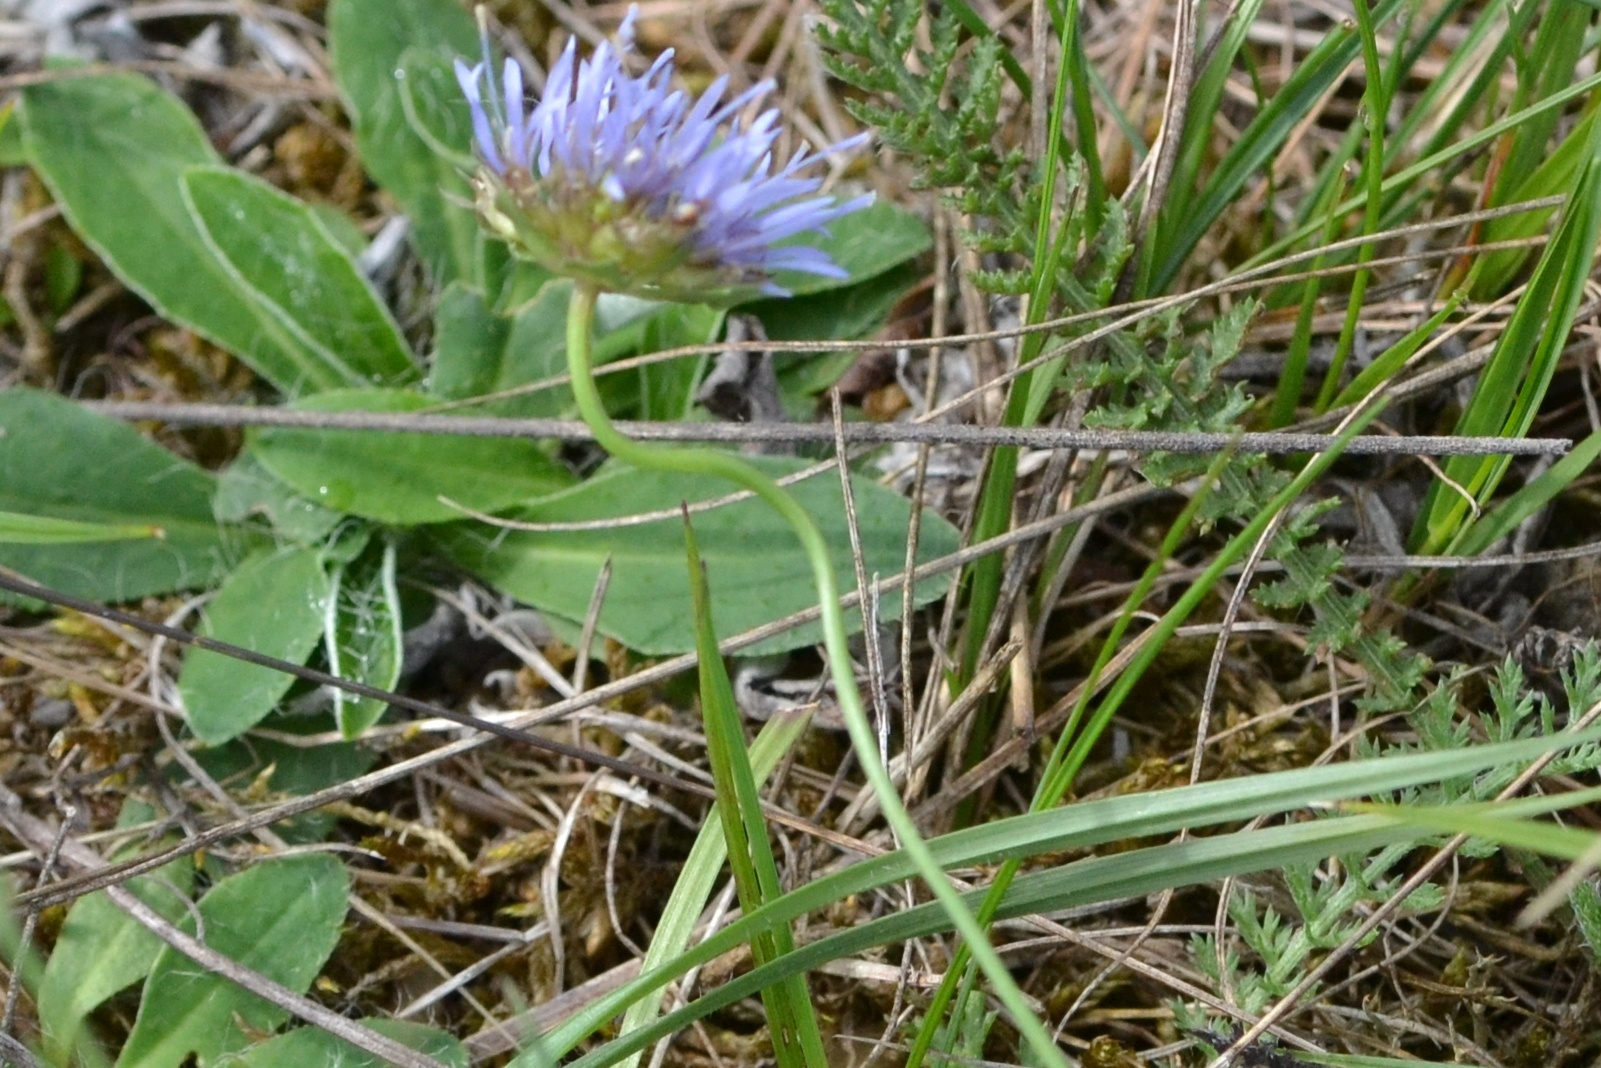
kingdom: Plantae
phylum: Tracheophyta
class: Magnoliopsida
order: Asterales
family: Campanulaceae
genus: Jasione
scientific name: Jasione montana
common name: Sheep's-bit
